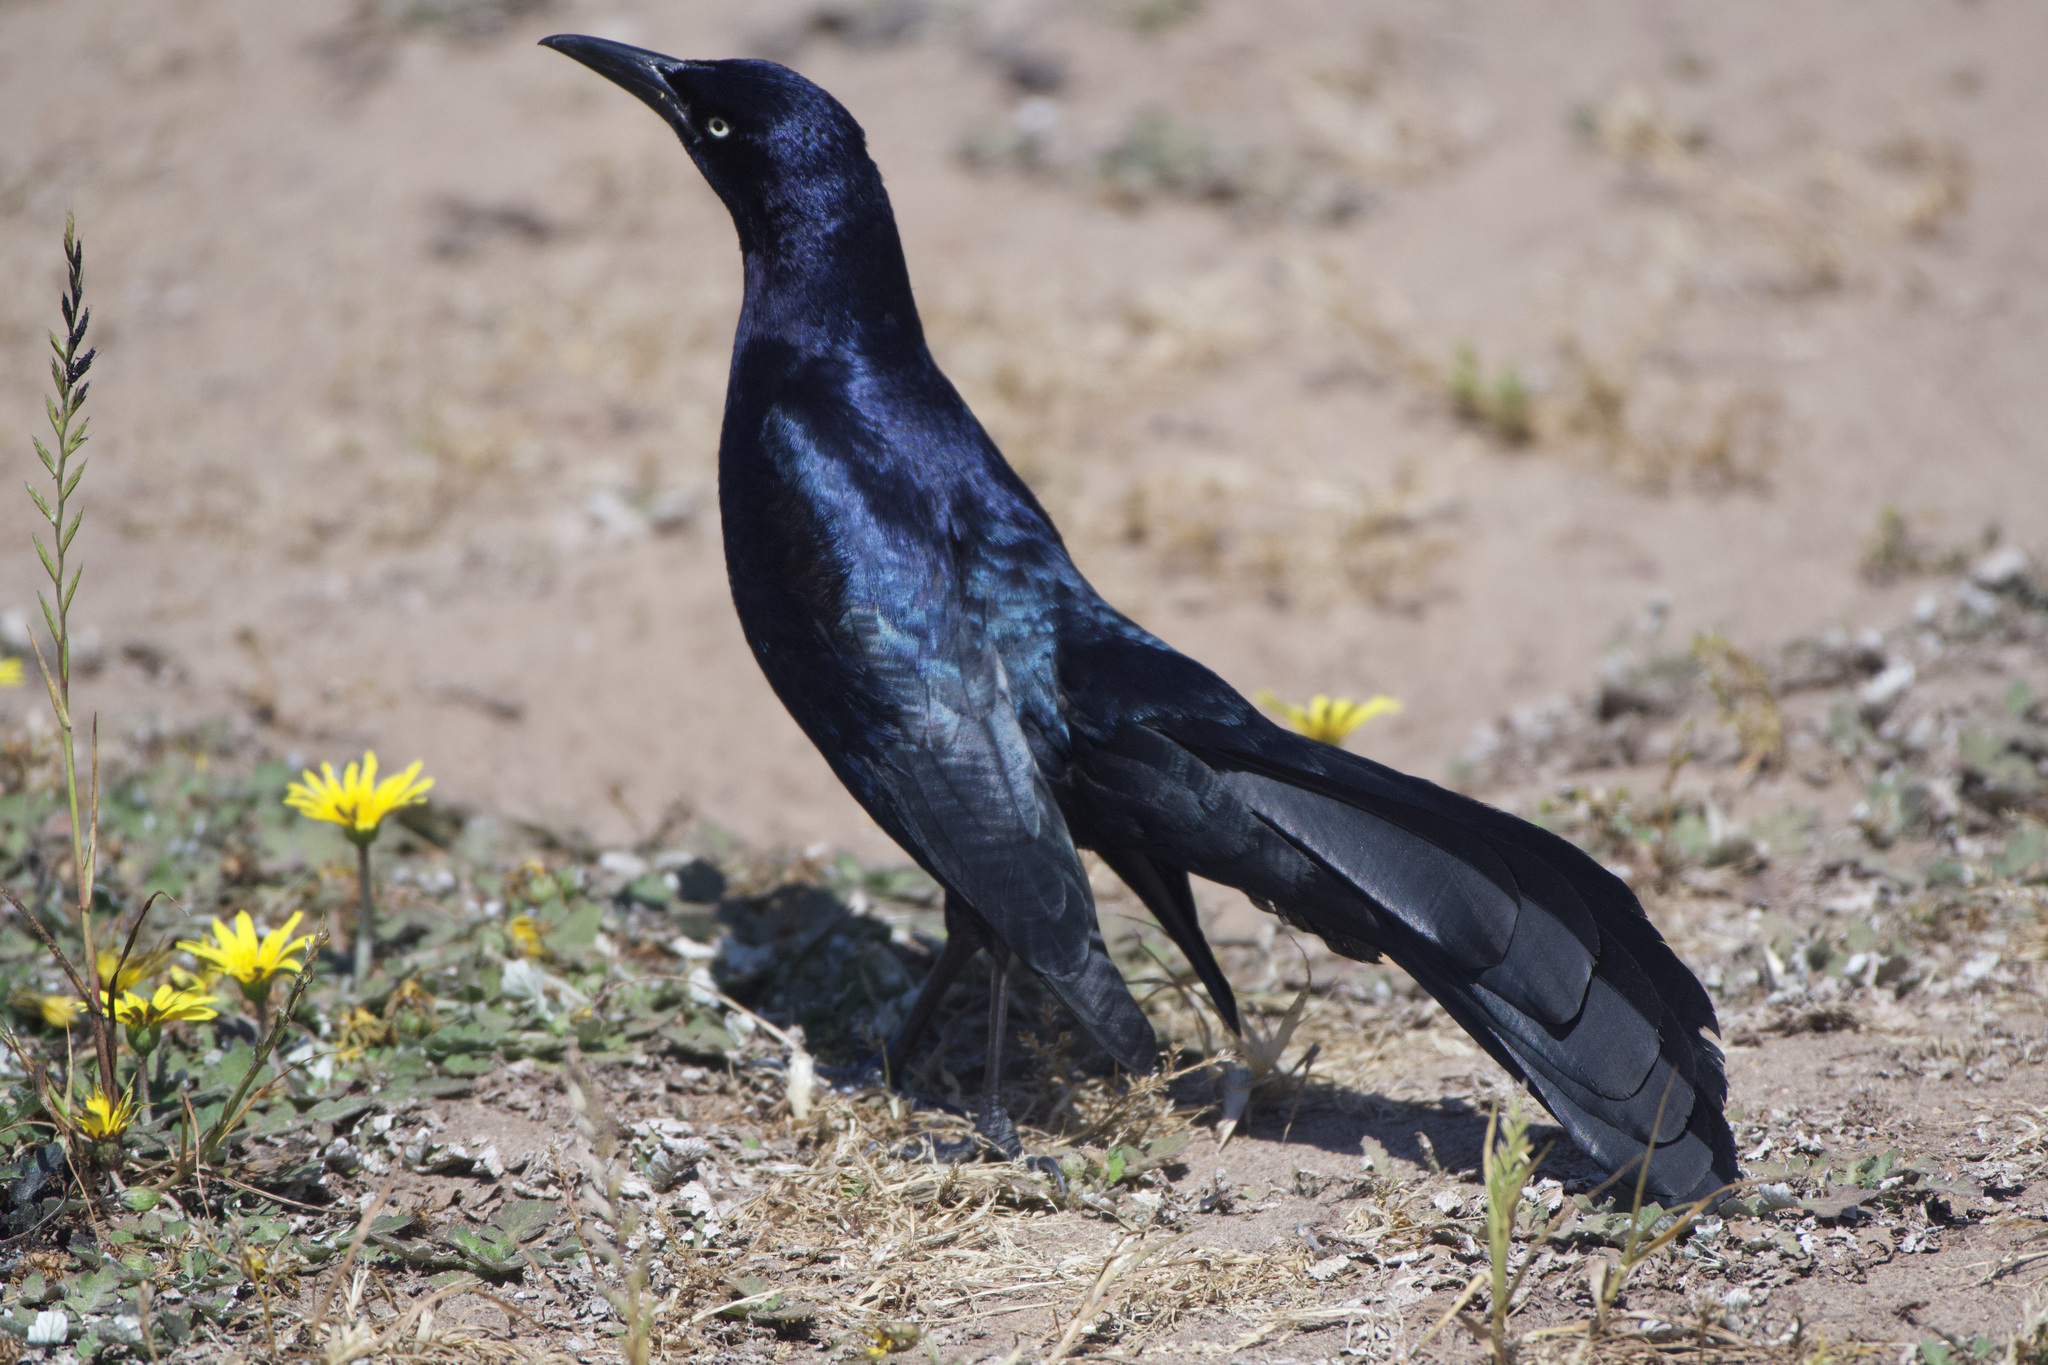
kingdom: Animalia
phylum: Chordata
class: Aves
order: Passeriformes
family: Icteridae
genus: Quiscalus
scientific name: Quiscalus mexicanus
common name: Great-tailed grackle
